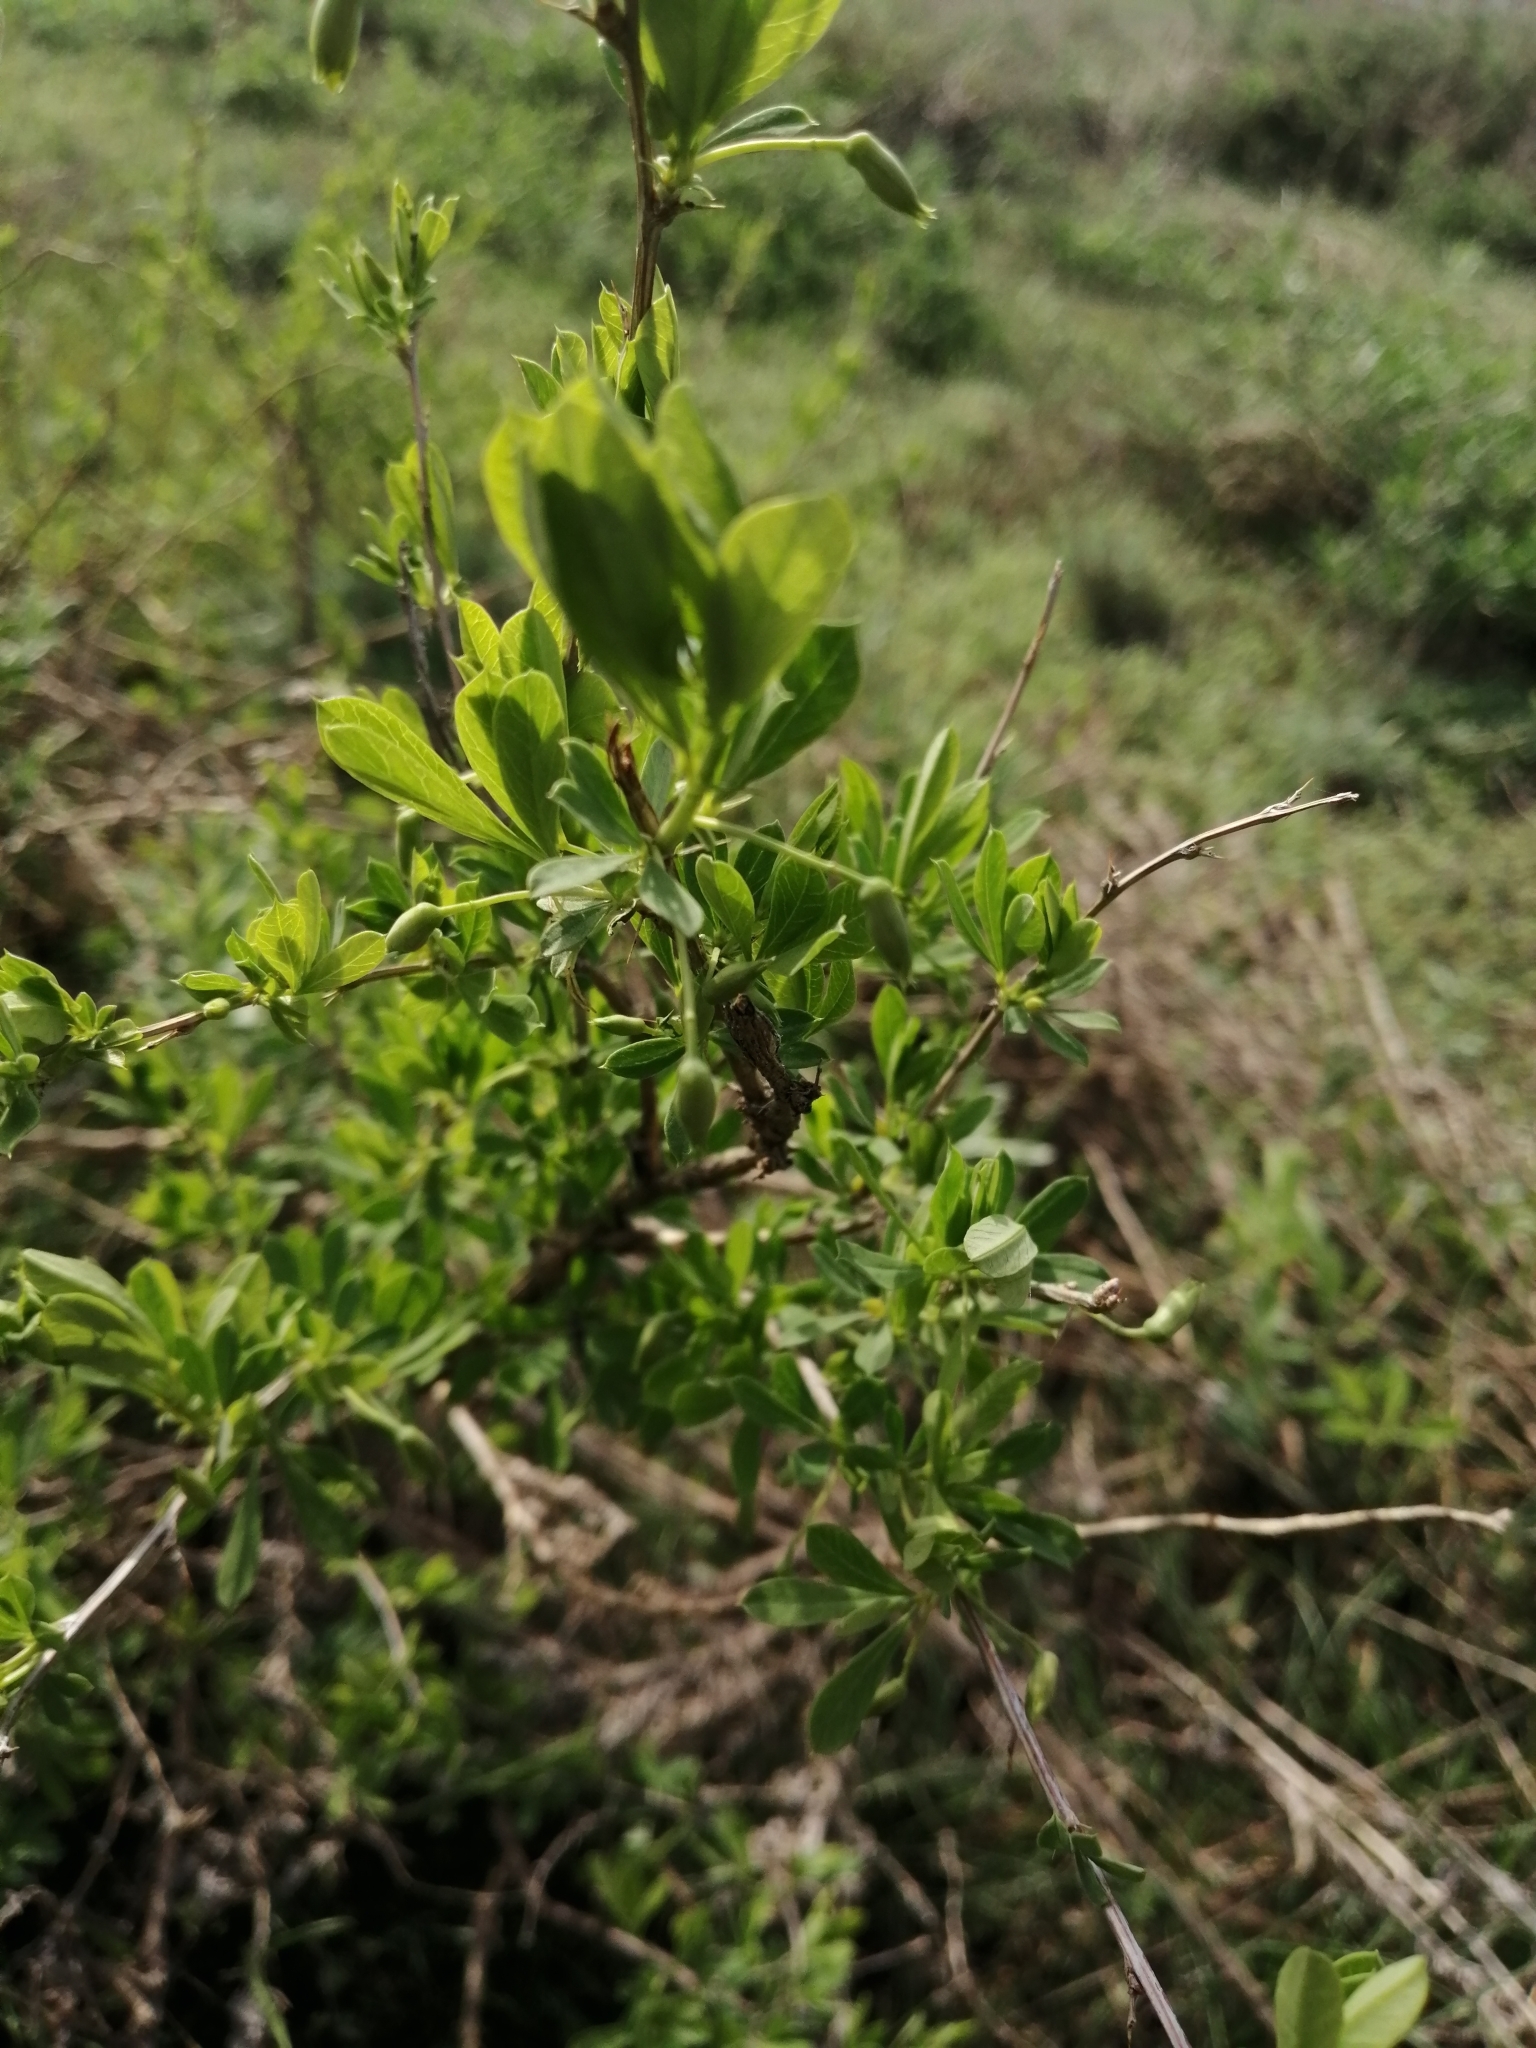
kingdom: Plantae
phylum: Tracheophyta
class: Magnoliopsida
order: Fabales
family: Fabaceae
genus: Caragana
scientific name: Caragana frutex
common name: Russian peashrub
